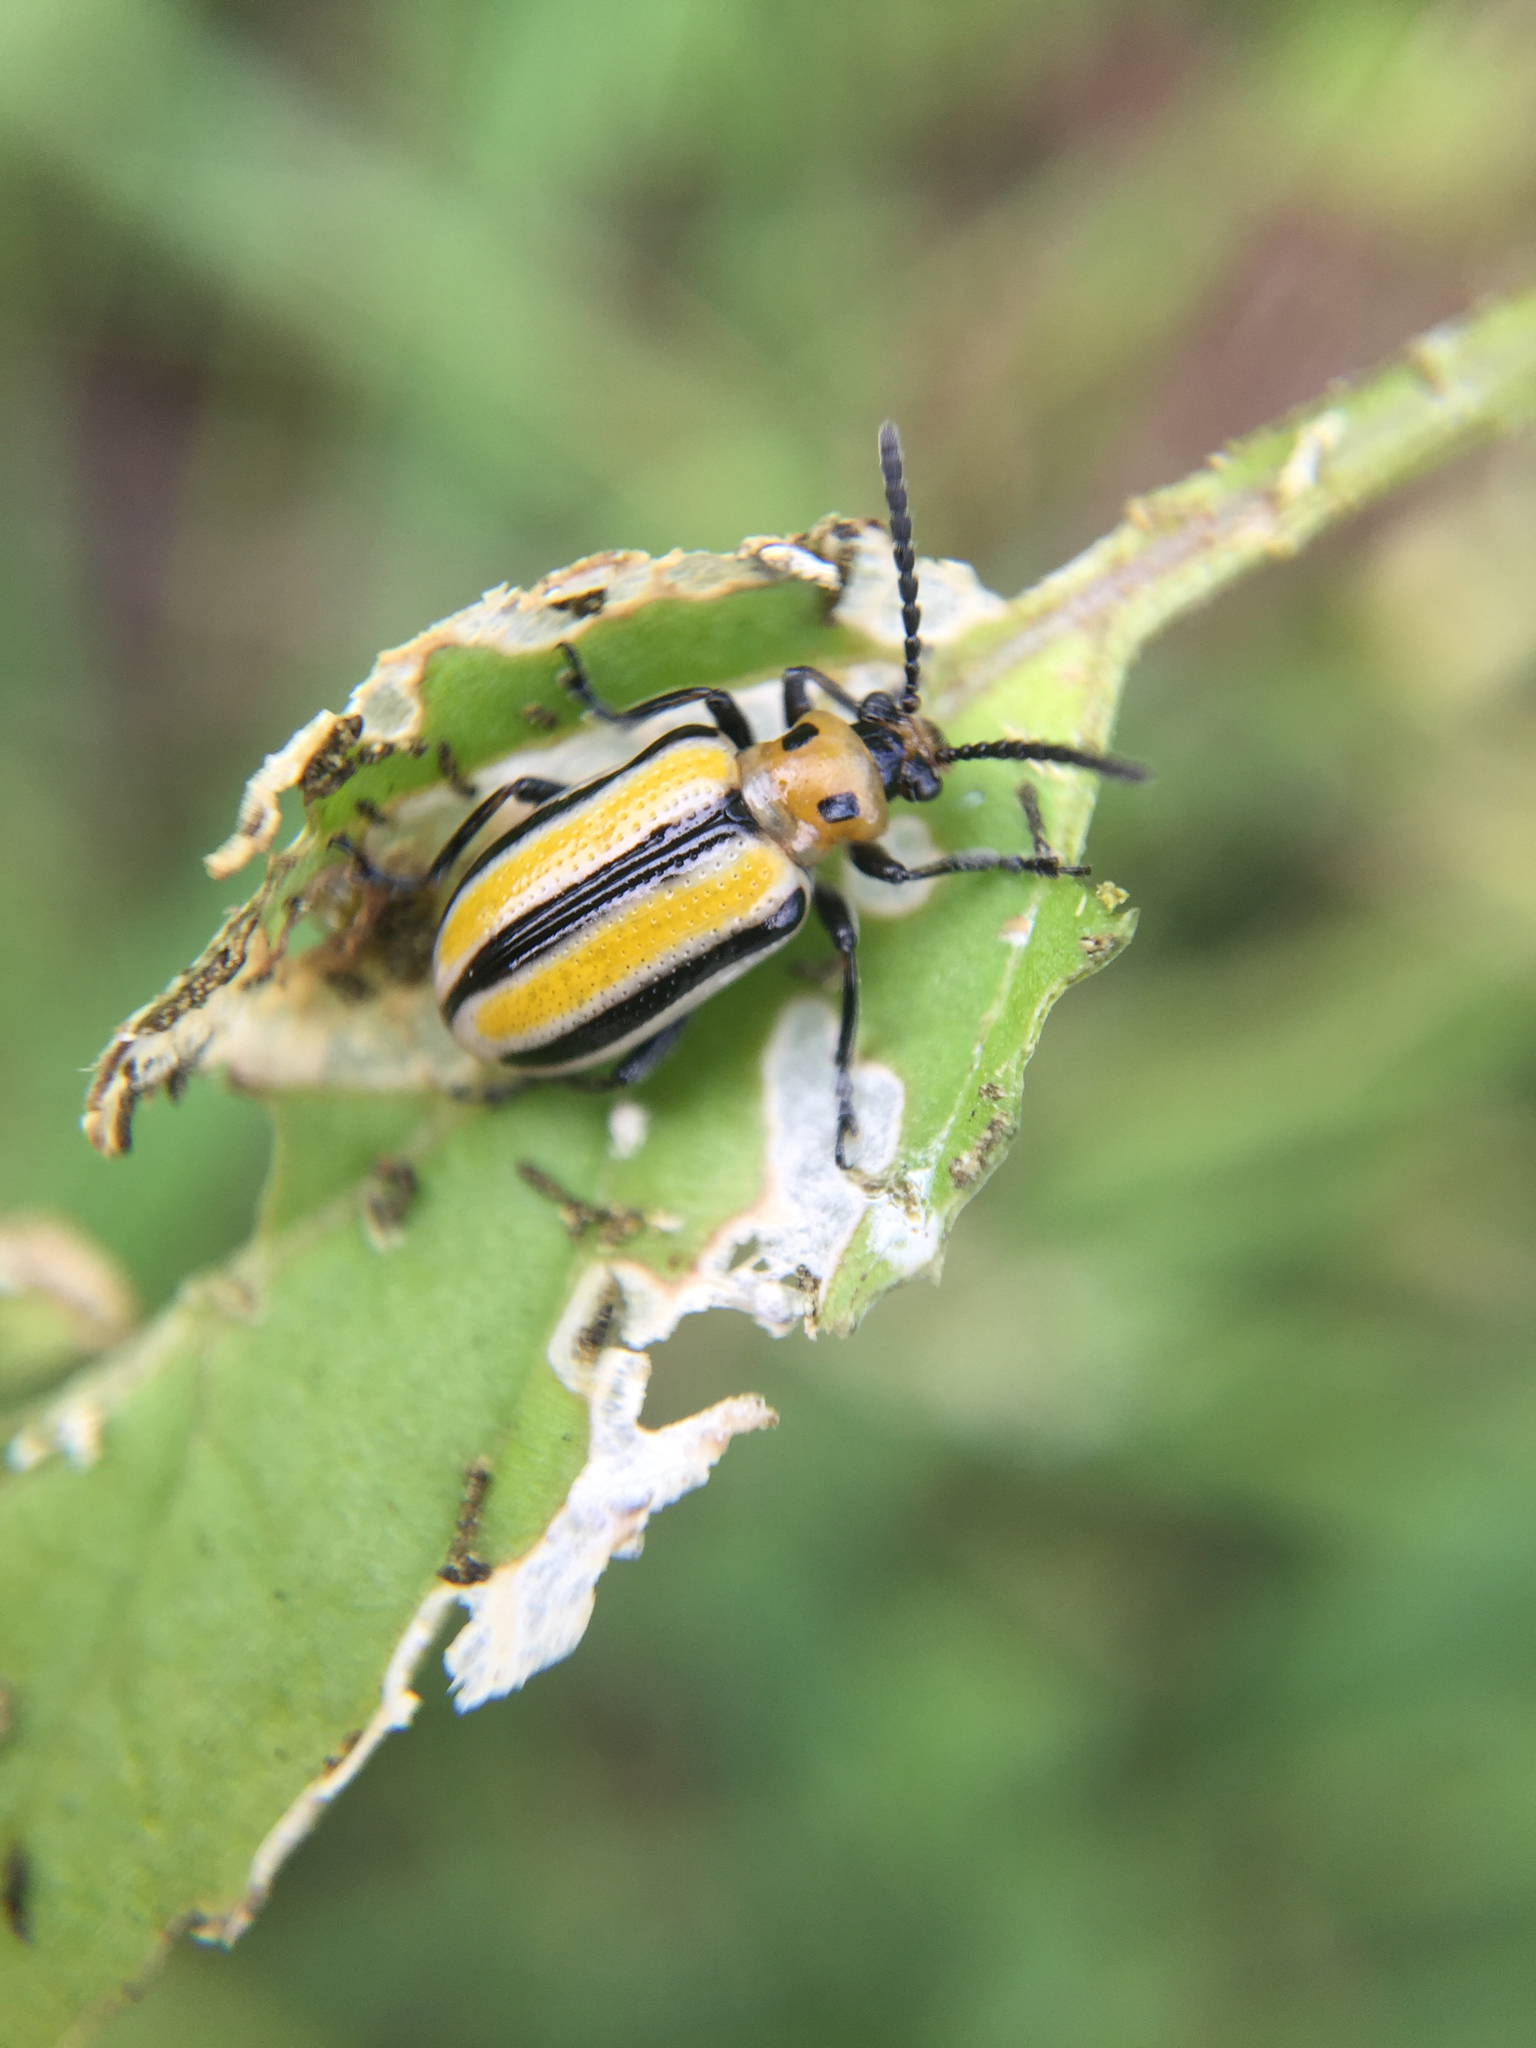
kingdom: Animalia
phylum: Arthropoda
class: Insecta
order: Coleoptera
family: Chrysomelidae
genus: Lema
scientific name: Lema daturaphila
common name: Leaf beetle
